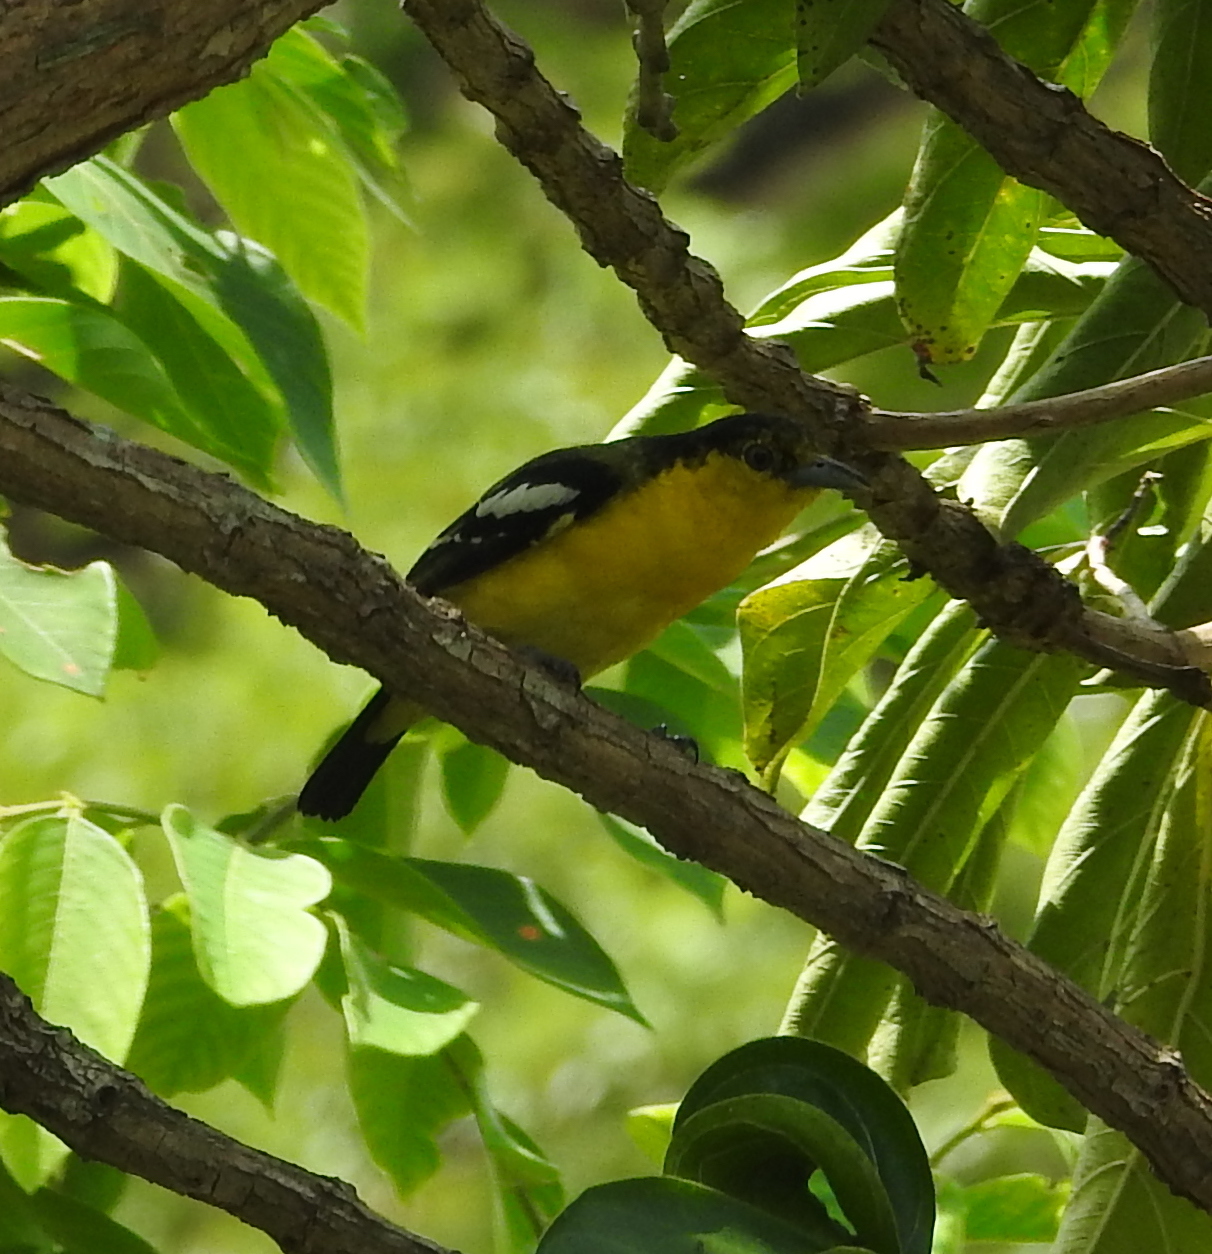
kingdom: Animalia
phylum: Chordata
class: Aves
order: Passeriformes
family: Aegithinidae
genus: Aegithina
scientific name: Aegithina tiphia
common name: Common iora
